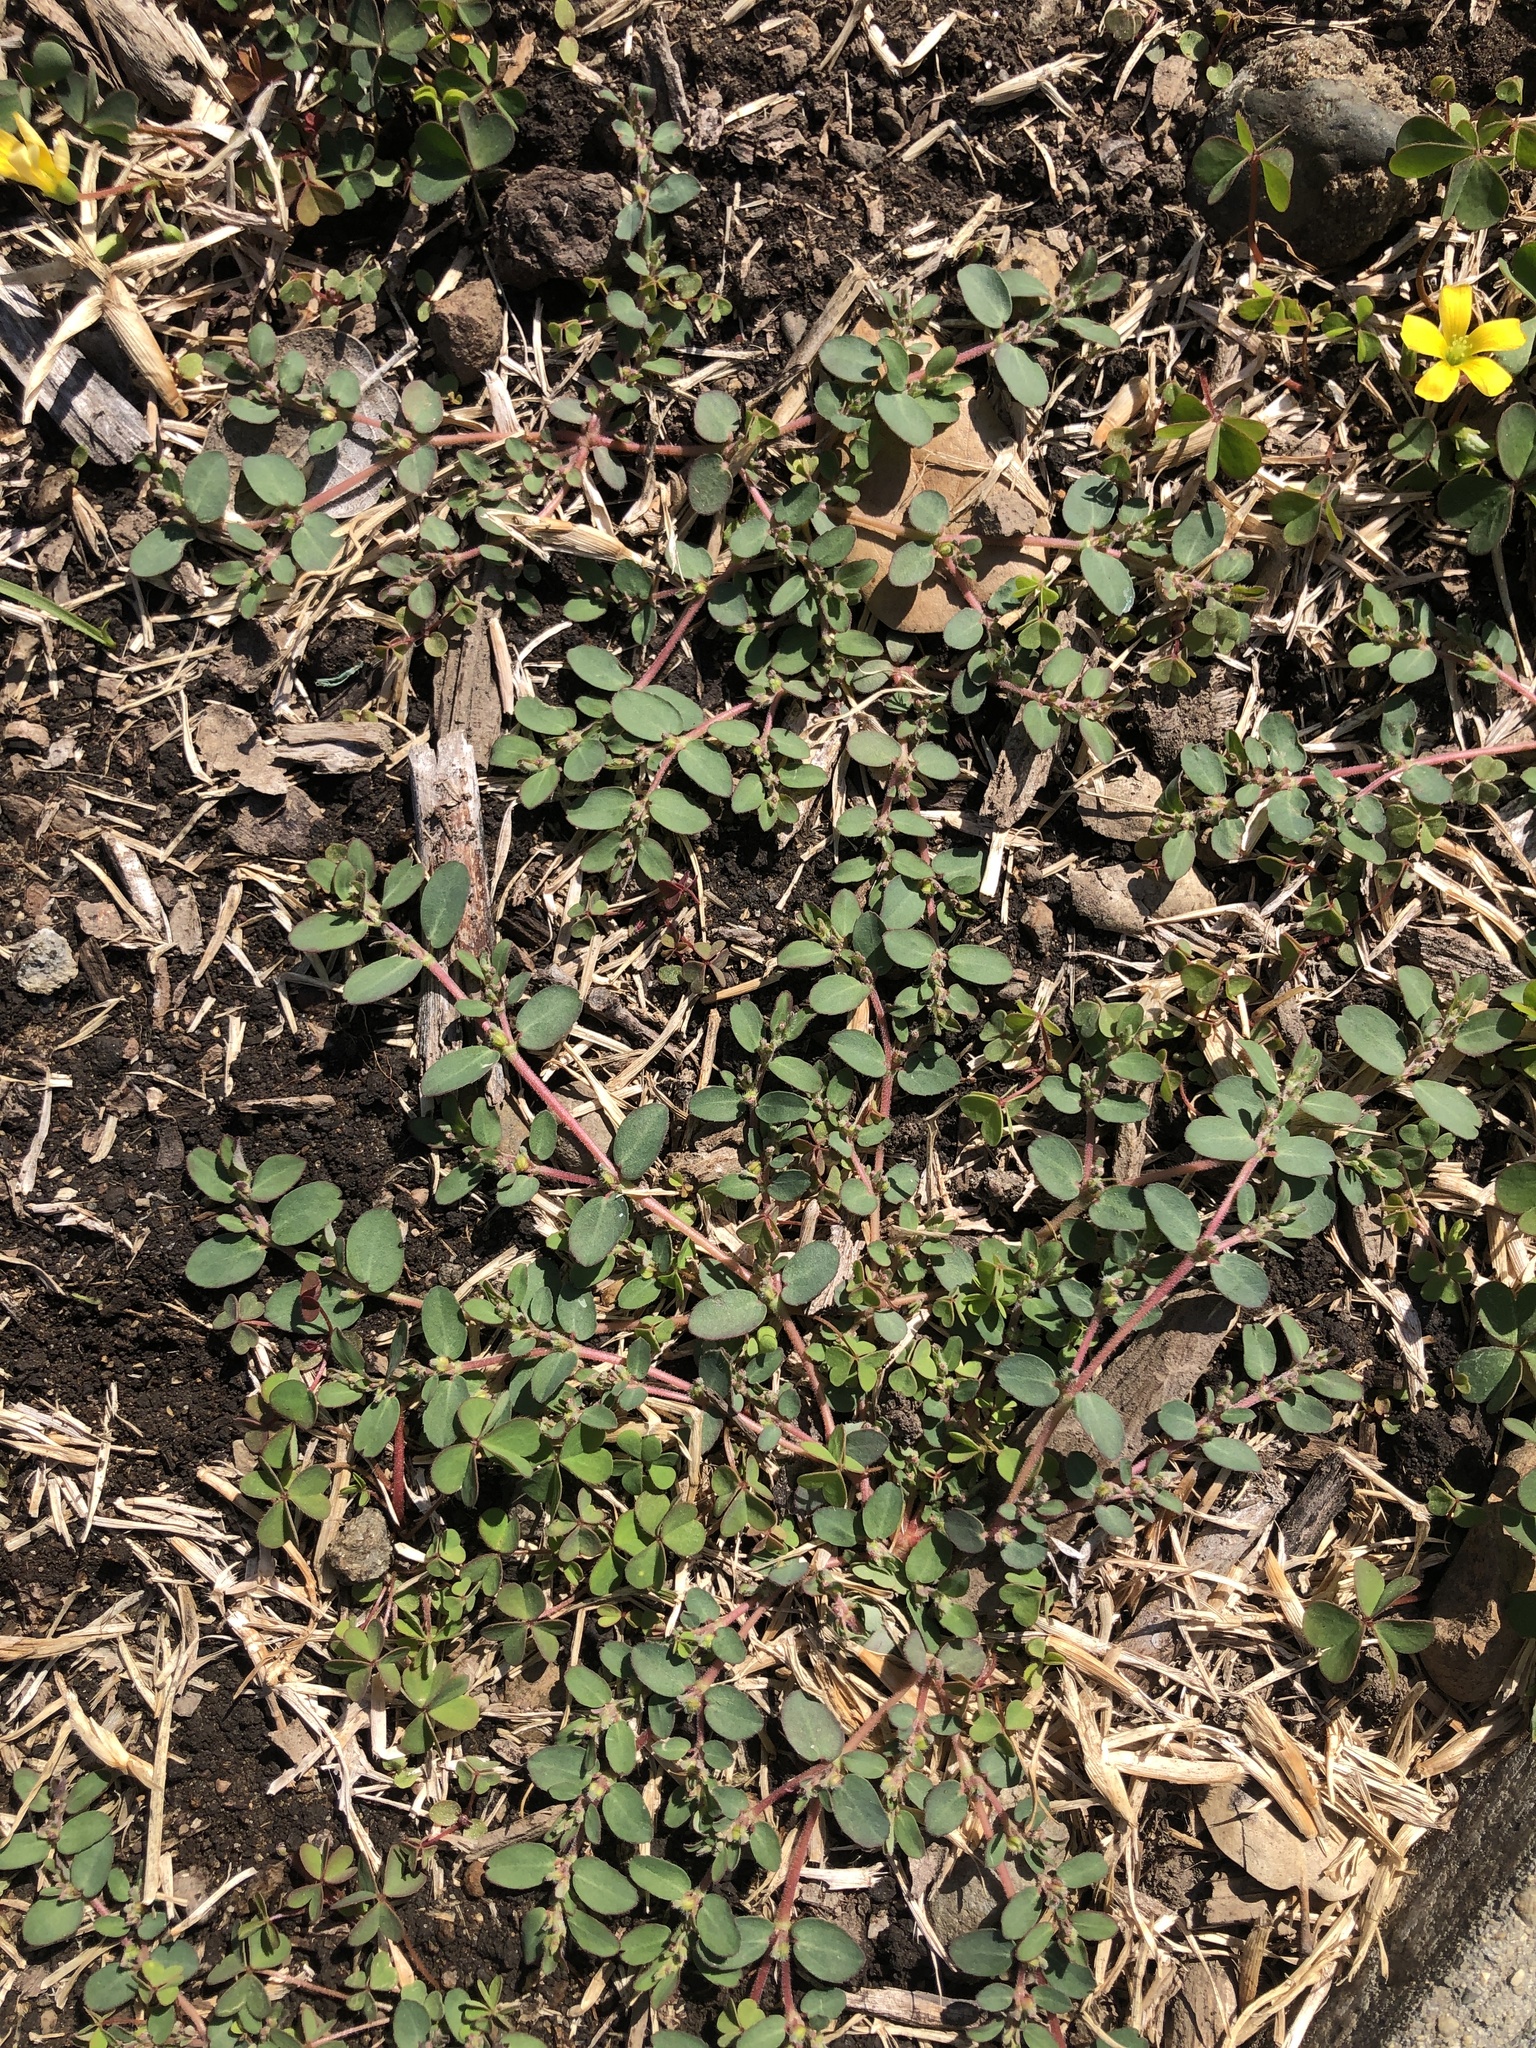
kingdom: Plantae
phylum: Tracheophyta
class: Magnoliopsida
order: Malpighiales
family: Euphorbiaceae
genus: Euphorbia
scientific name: Euphorbia prostrata
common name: Prostrate sandmat
